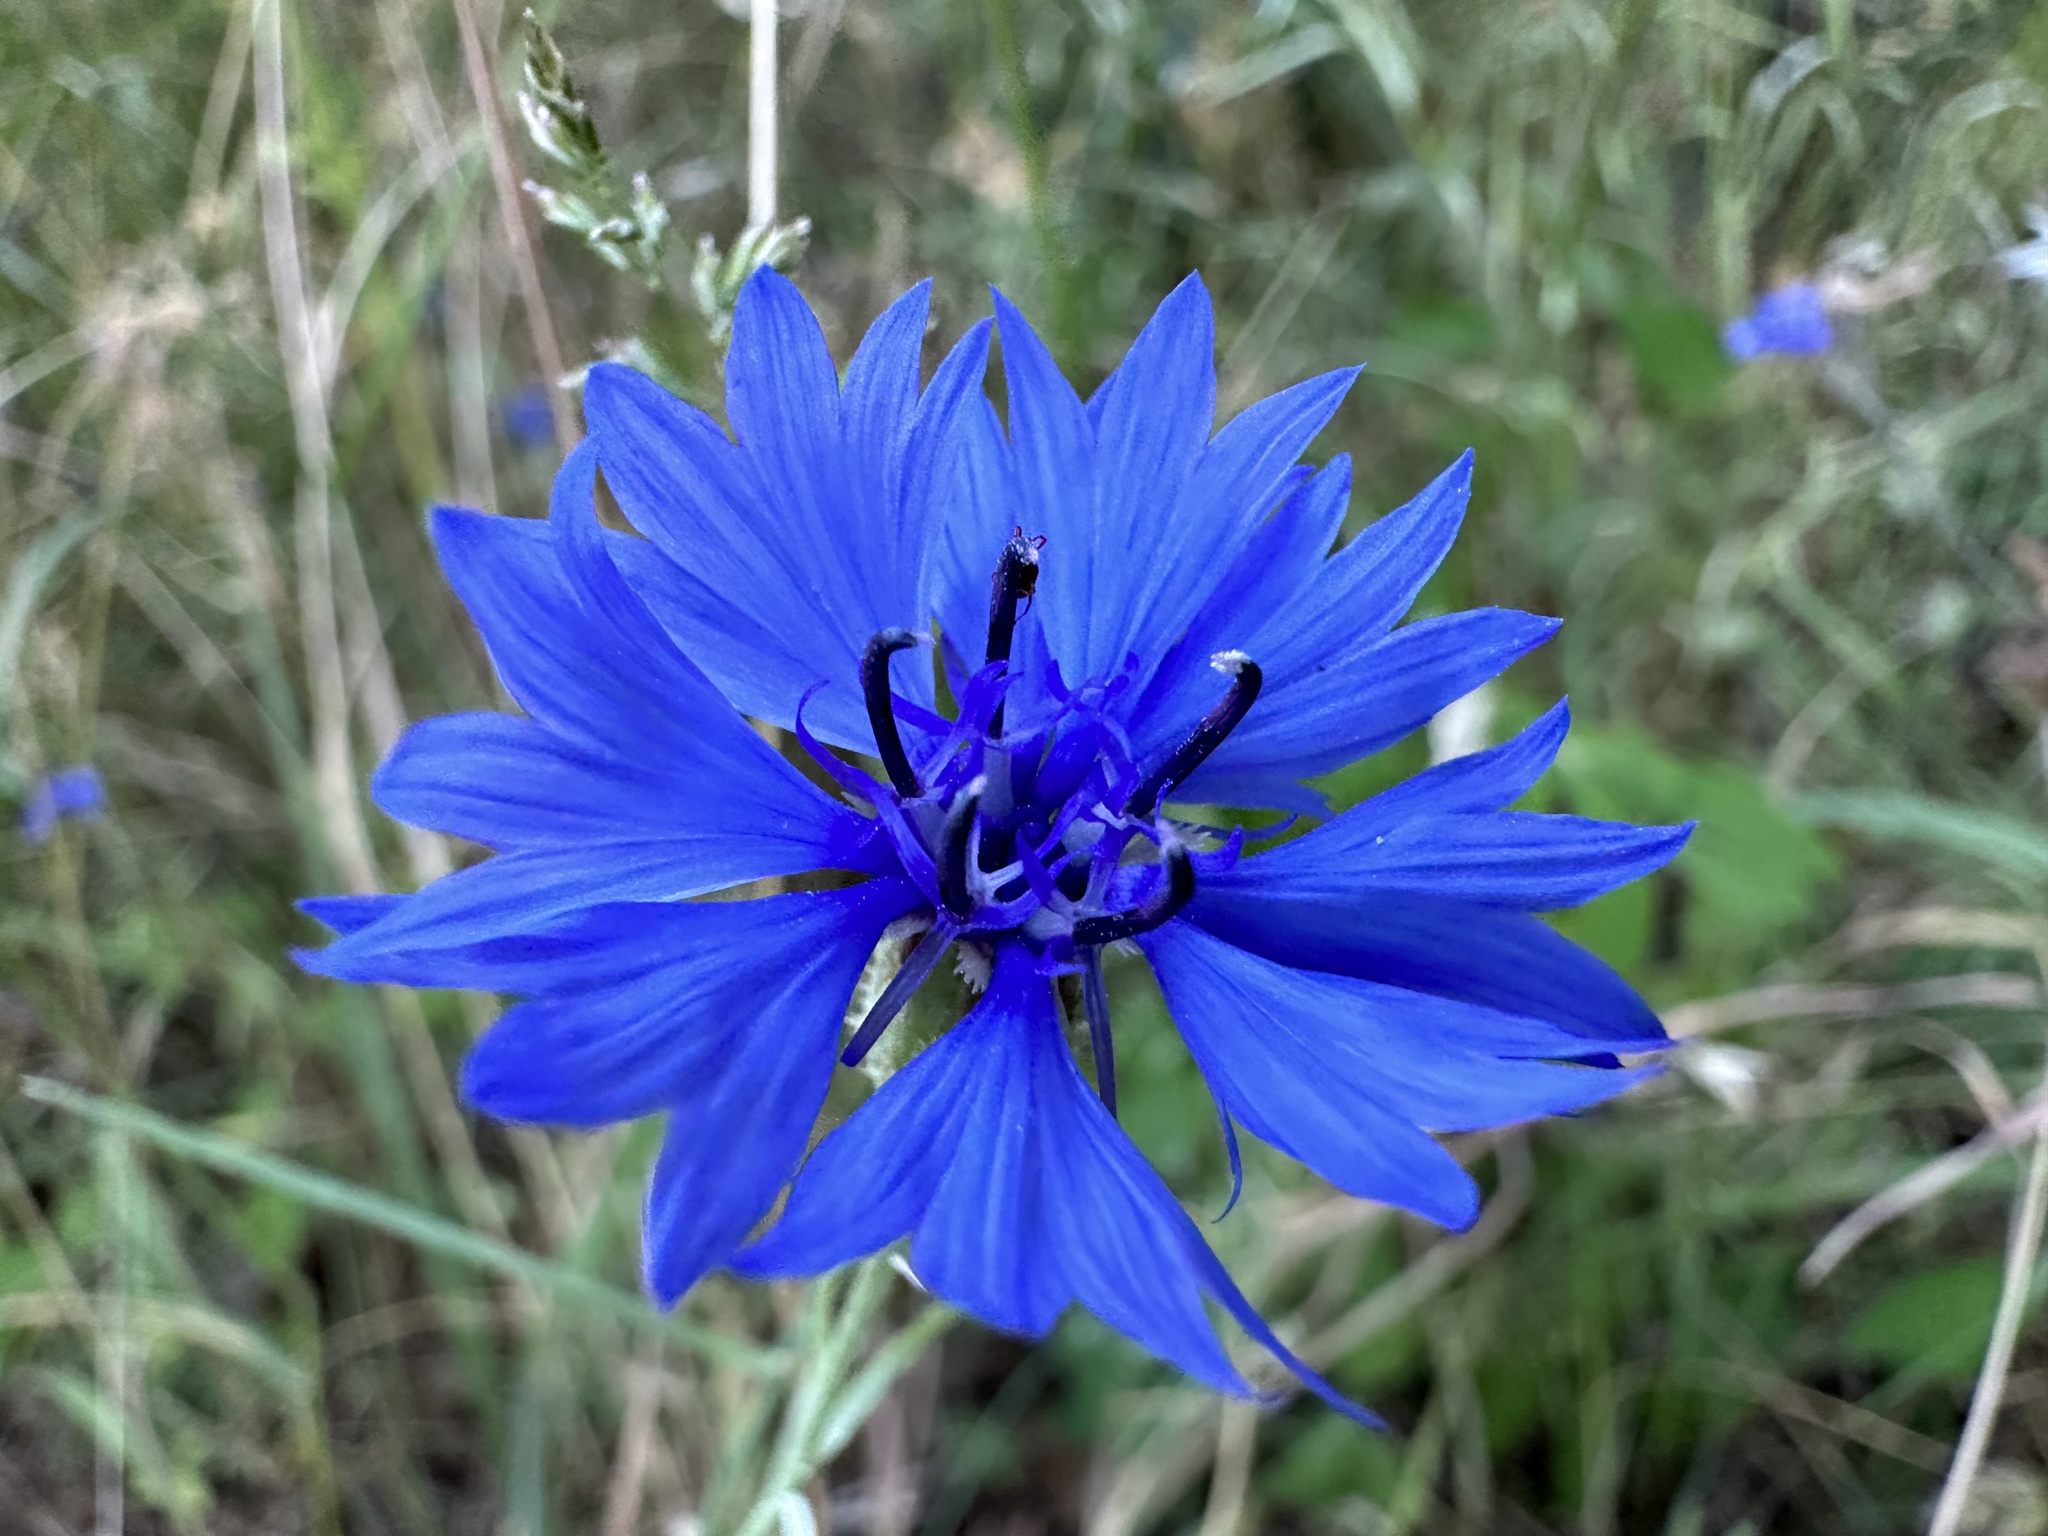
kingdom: Plantae
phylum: Tracheophyta
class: Magnoliopsida
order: Asterales
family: Asteraceae
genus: Centaurea
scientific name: Centaurea cyanus
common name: Cornflower
